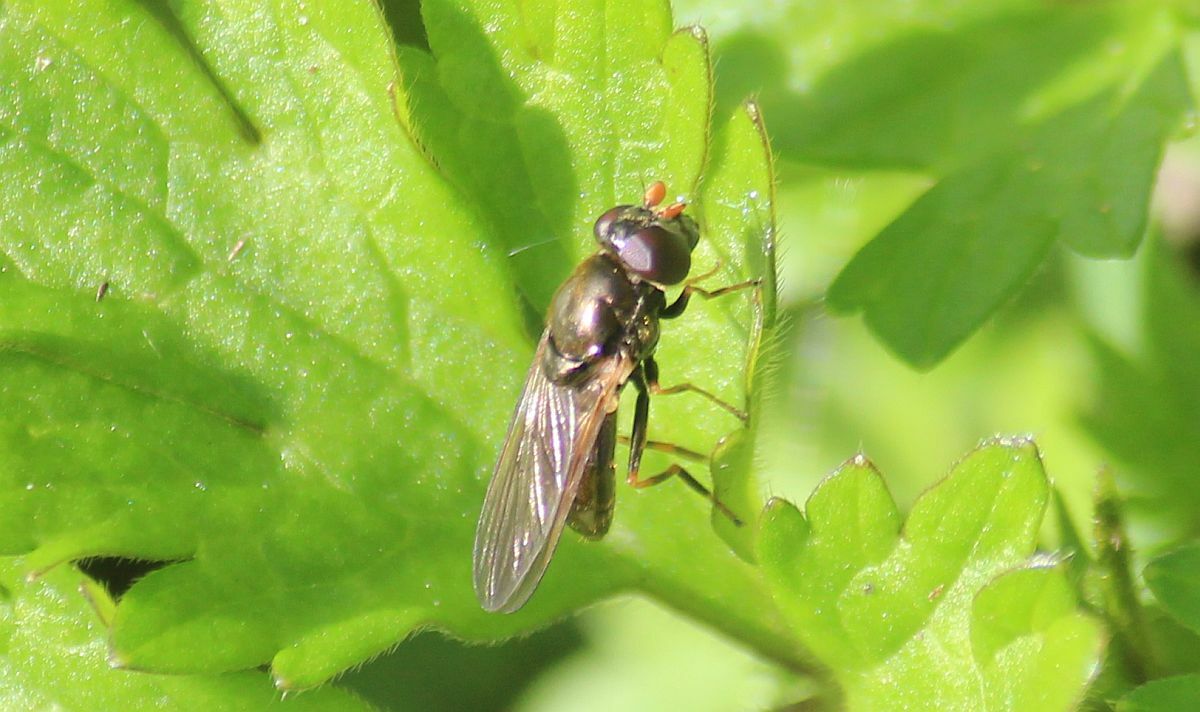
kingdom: Animalia
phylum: Arthropoda
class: Insecta
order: Diptera
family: Syrphidae
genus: Cheilosia
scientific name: Cheilosia pagana
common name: Hover fly
